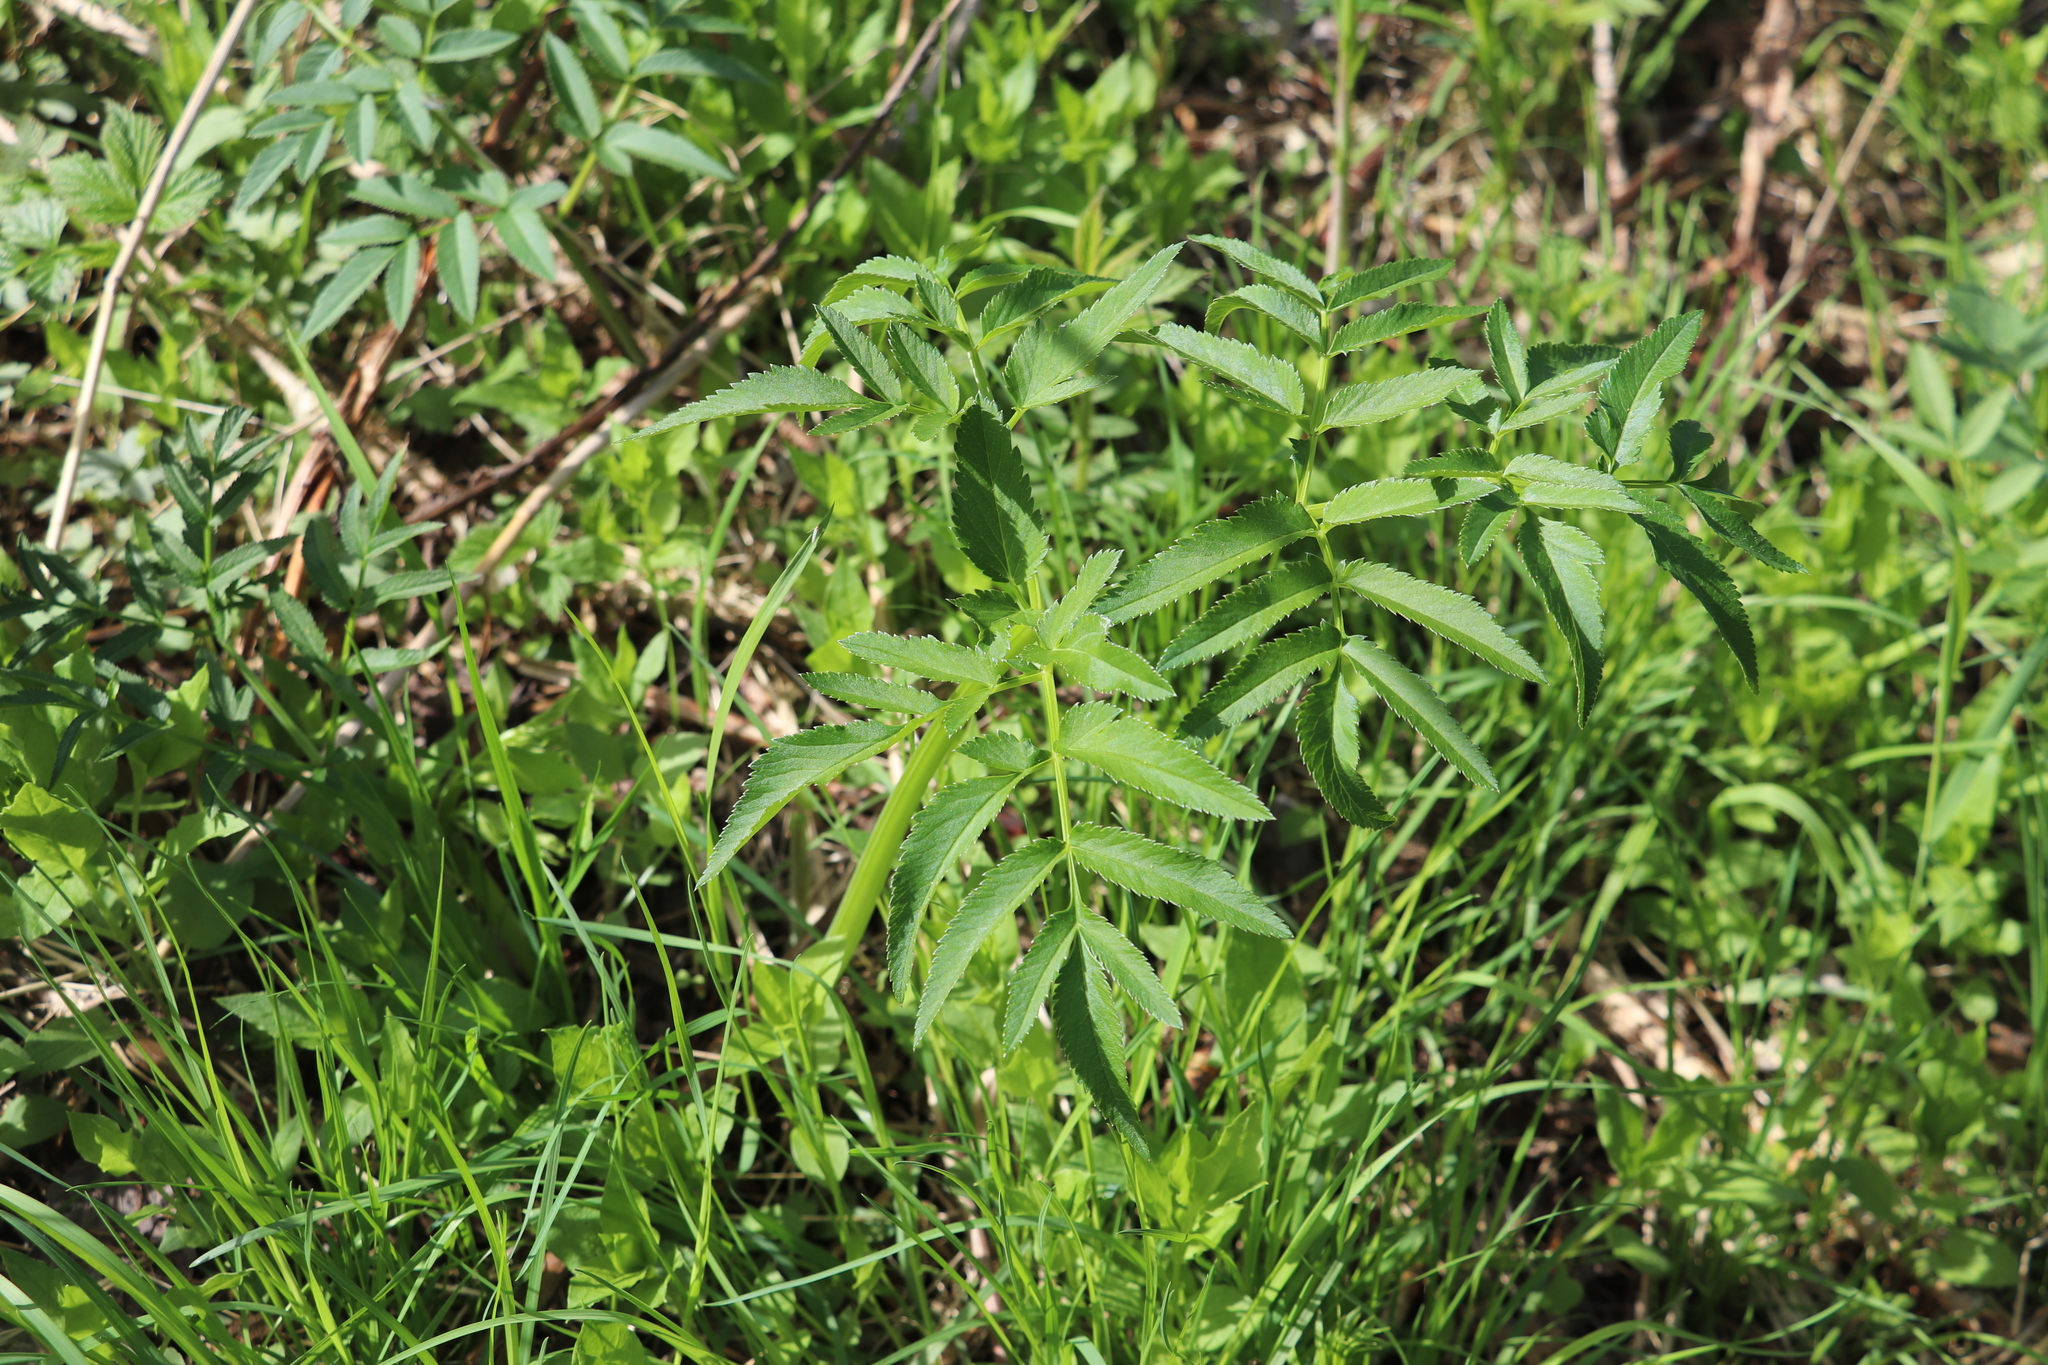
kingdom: Plantae
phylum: Tracheophyta
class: Magnoliopsida
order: Apiales
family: Apiaceae
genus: Angelica
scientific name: Angelica sylvestris
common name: Wild angelica
